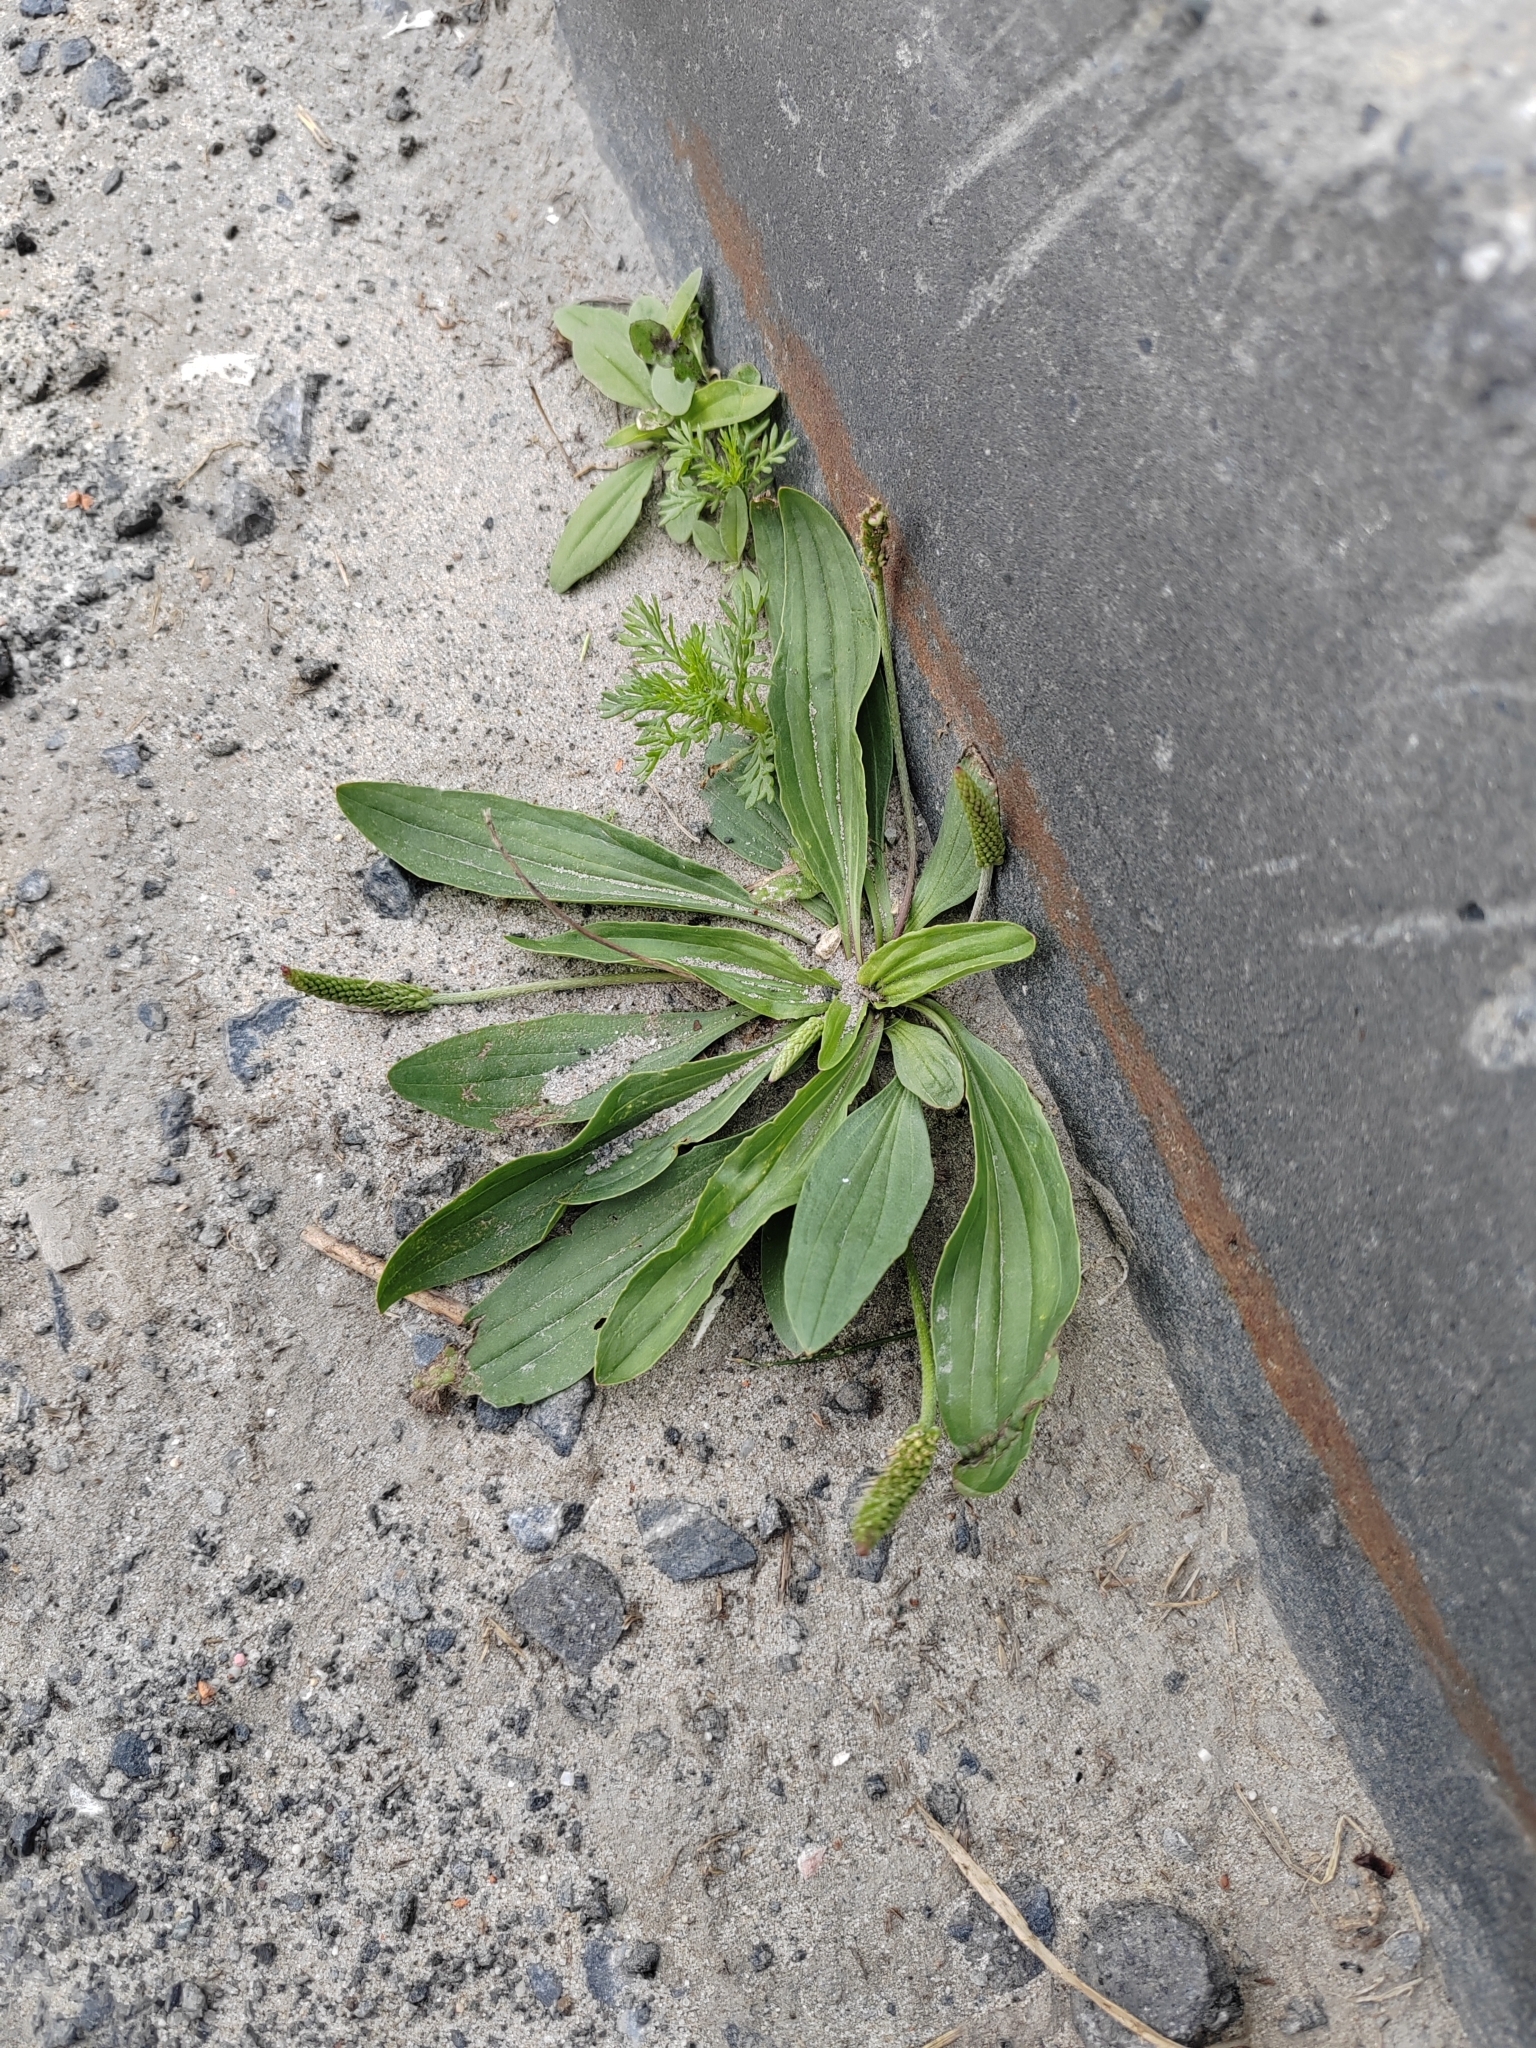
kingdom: Plantae
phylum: Tracheophyta
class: Magnoliopsida
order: Lamiales
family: Plantaginaceae
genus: Plantago
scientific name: Plantago depressa
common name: Depressed plantain
